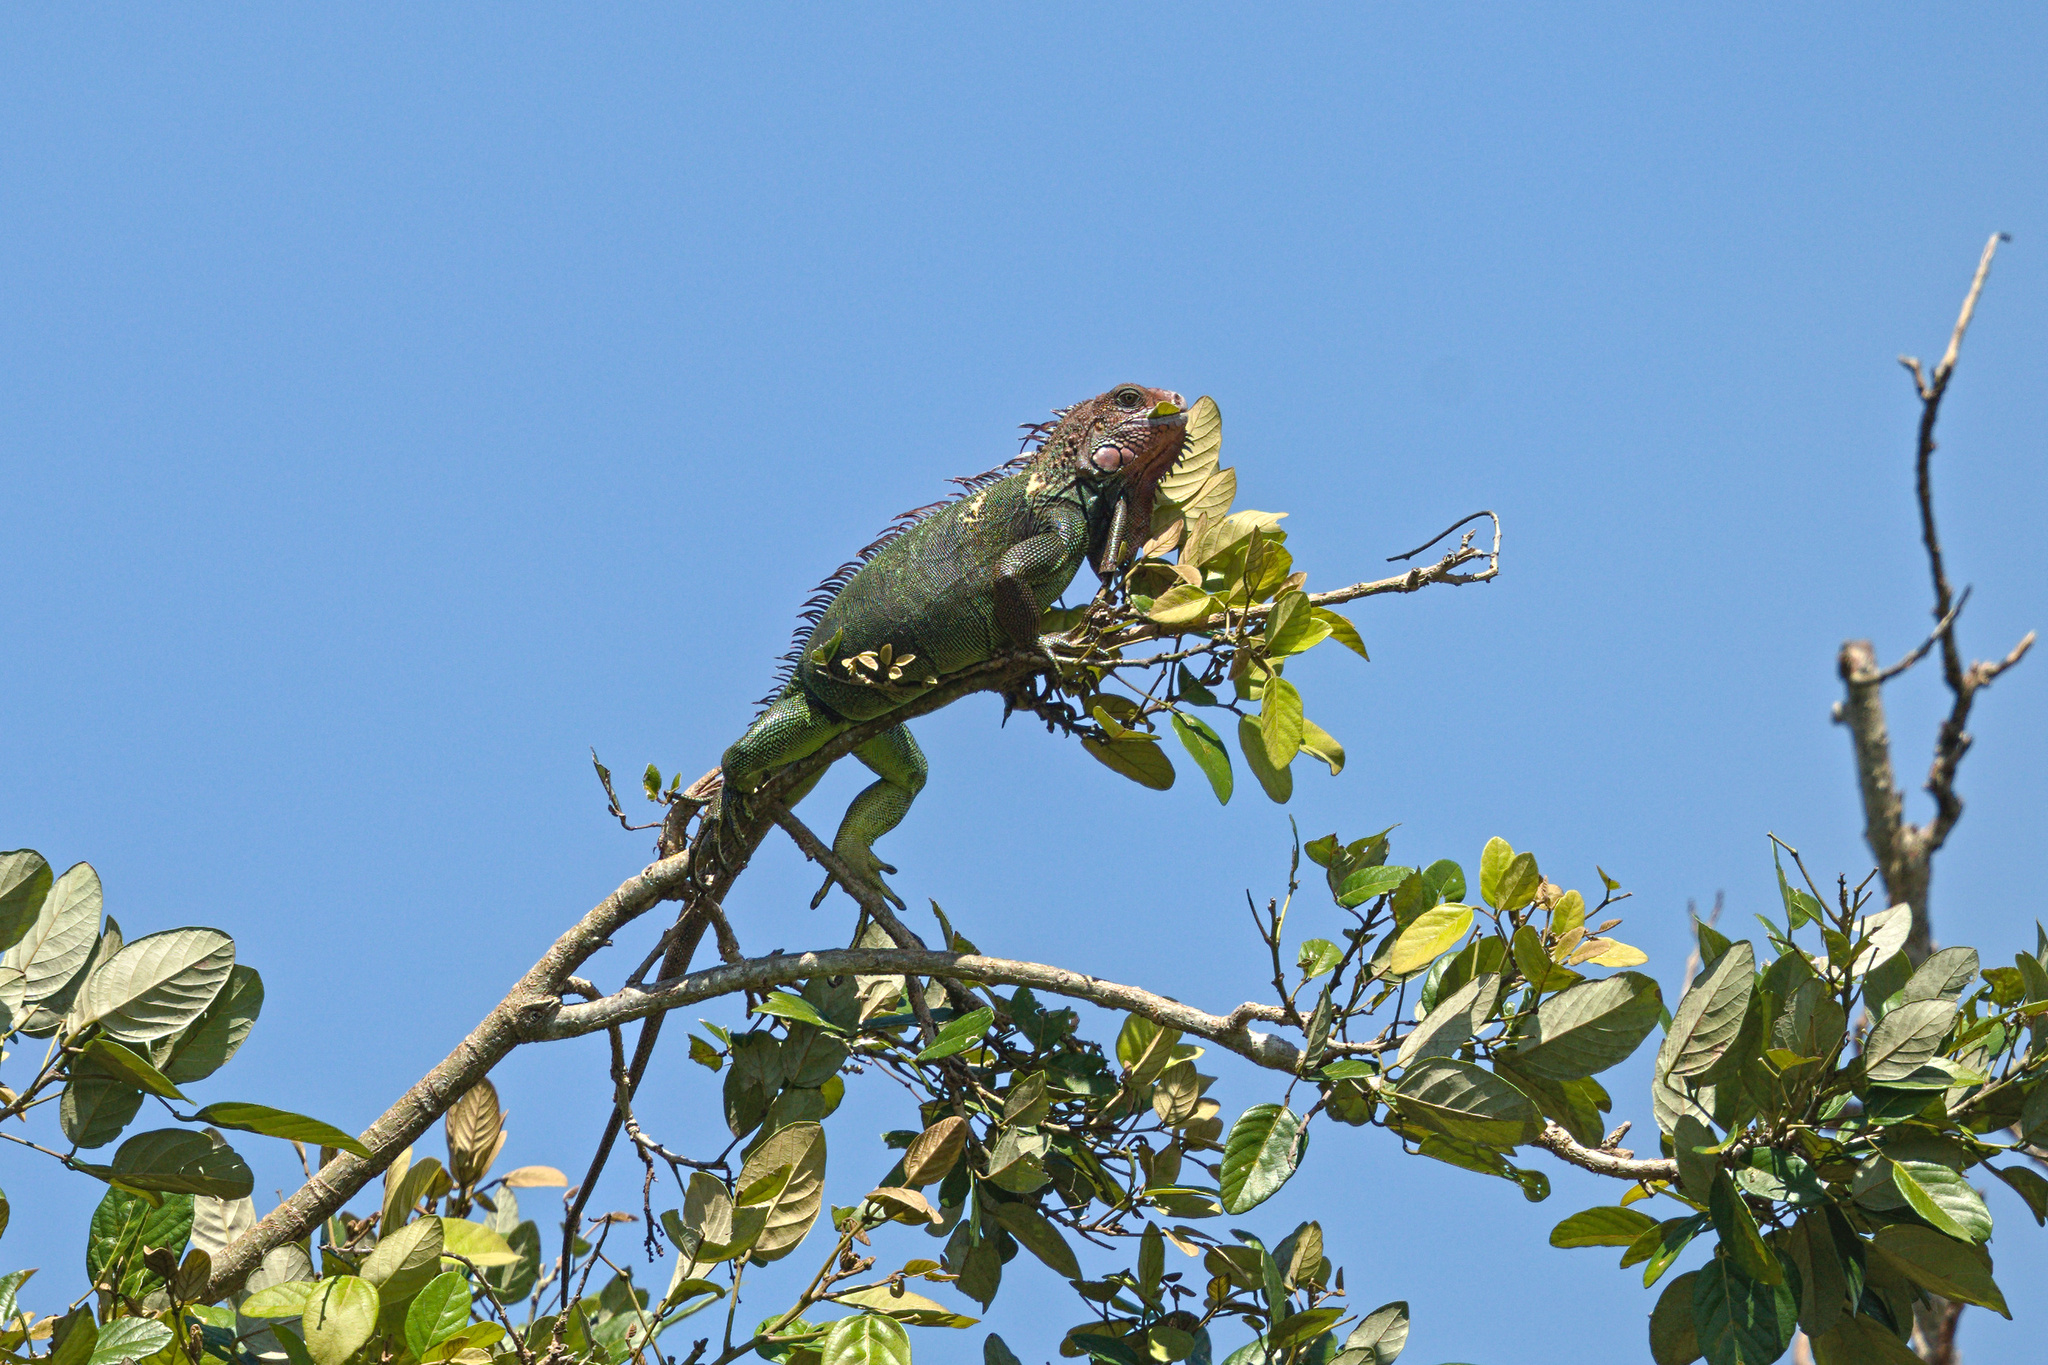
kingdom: Animalia
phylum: Chordata
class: Squamata
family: Iguanidae
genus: Iguana
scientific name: Iguana iguana
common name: Green iguana
